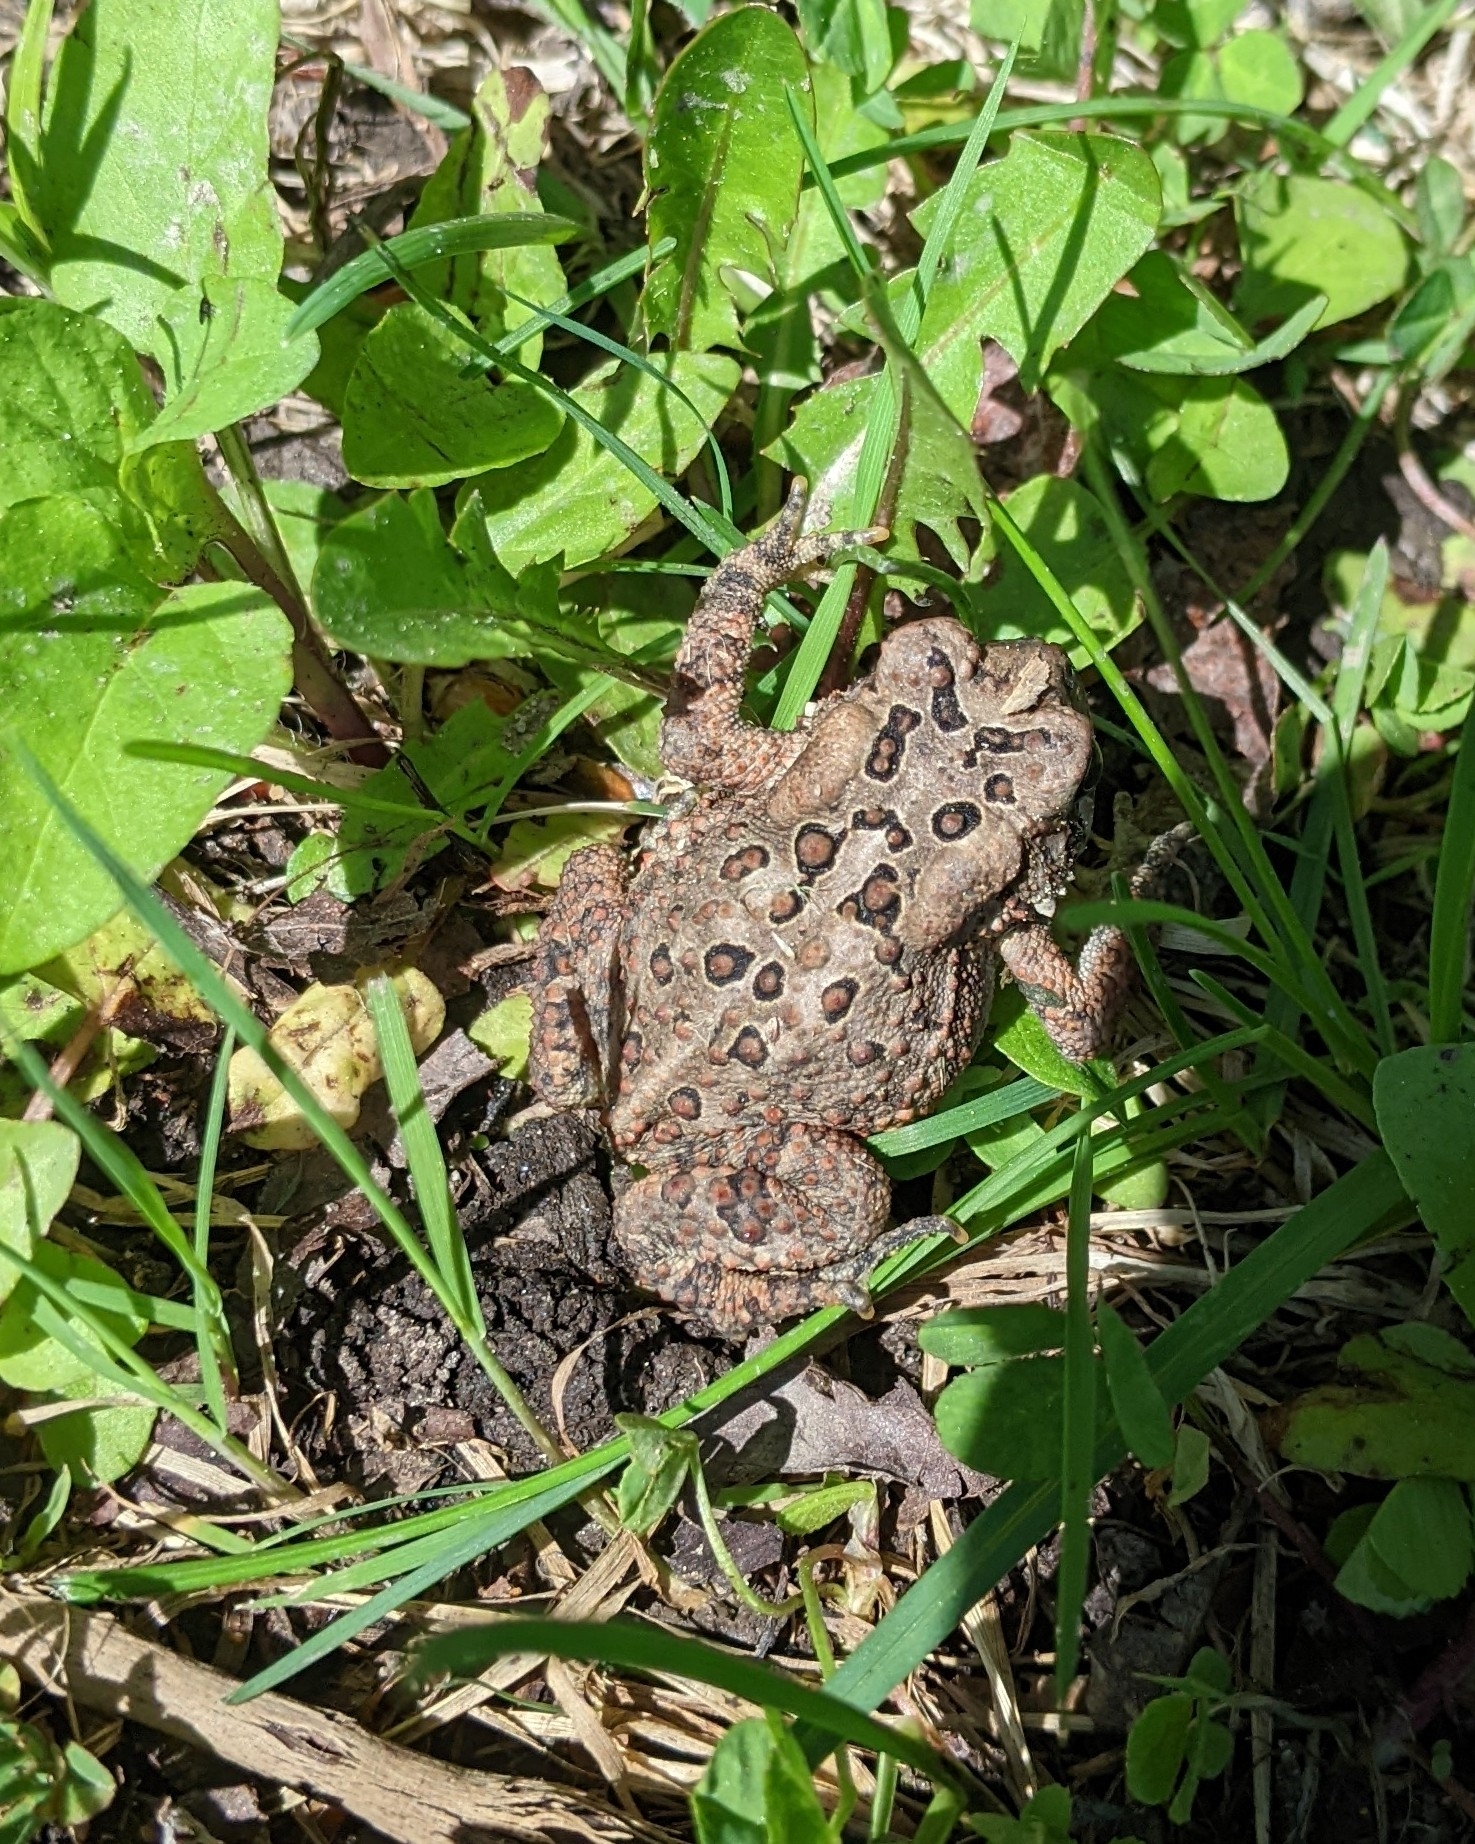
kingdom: Animalia
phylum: Chordata
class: Amphibia
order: Anura
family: Bufonidae
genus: Anaxyrus
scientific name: Anaxyrus americanus
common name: American toad
